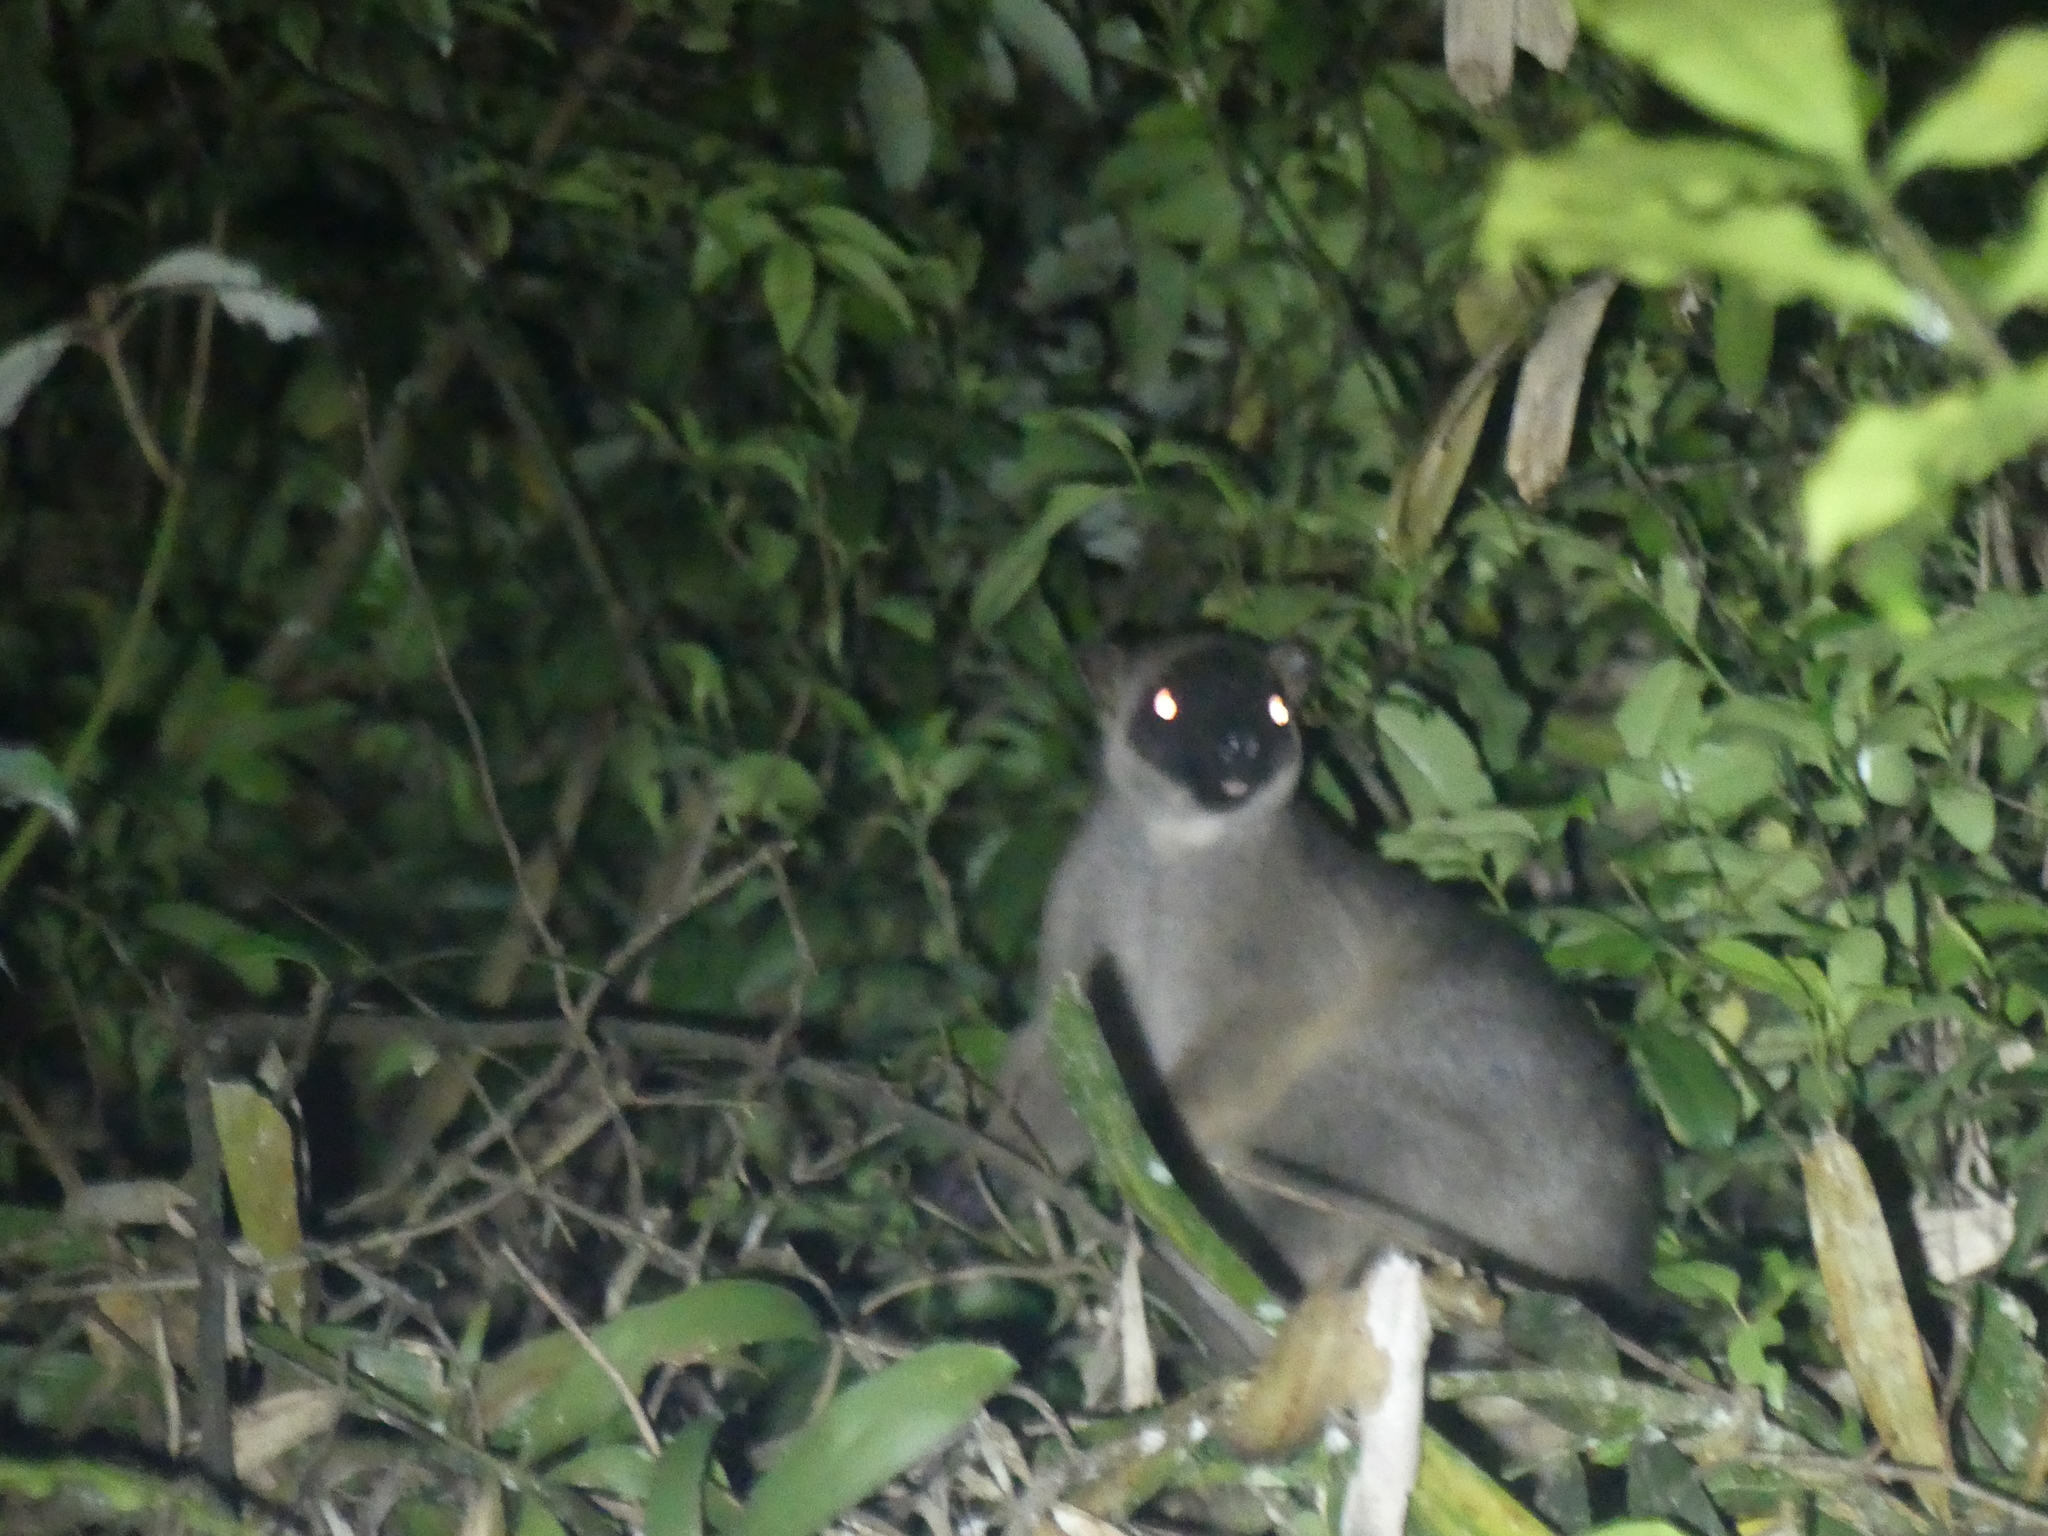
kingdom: Animalia
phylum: Chordata
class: Mammalia
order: Diprotodontia
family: Macropodidae
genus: Dendrolagus
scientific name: Dendrolagus lumholtzi
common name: Lumholtz's tree kangaroo
